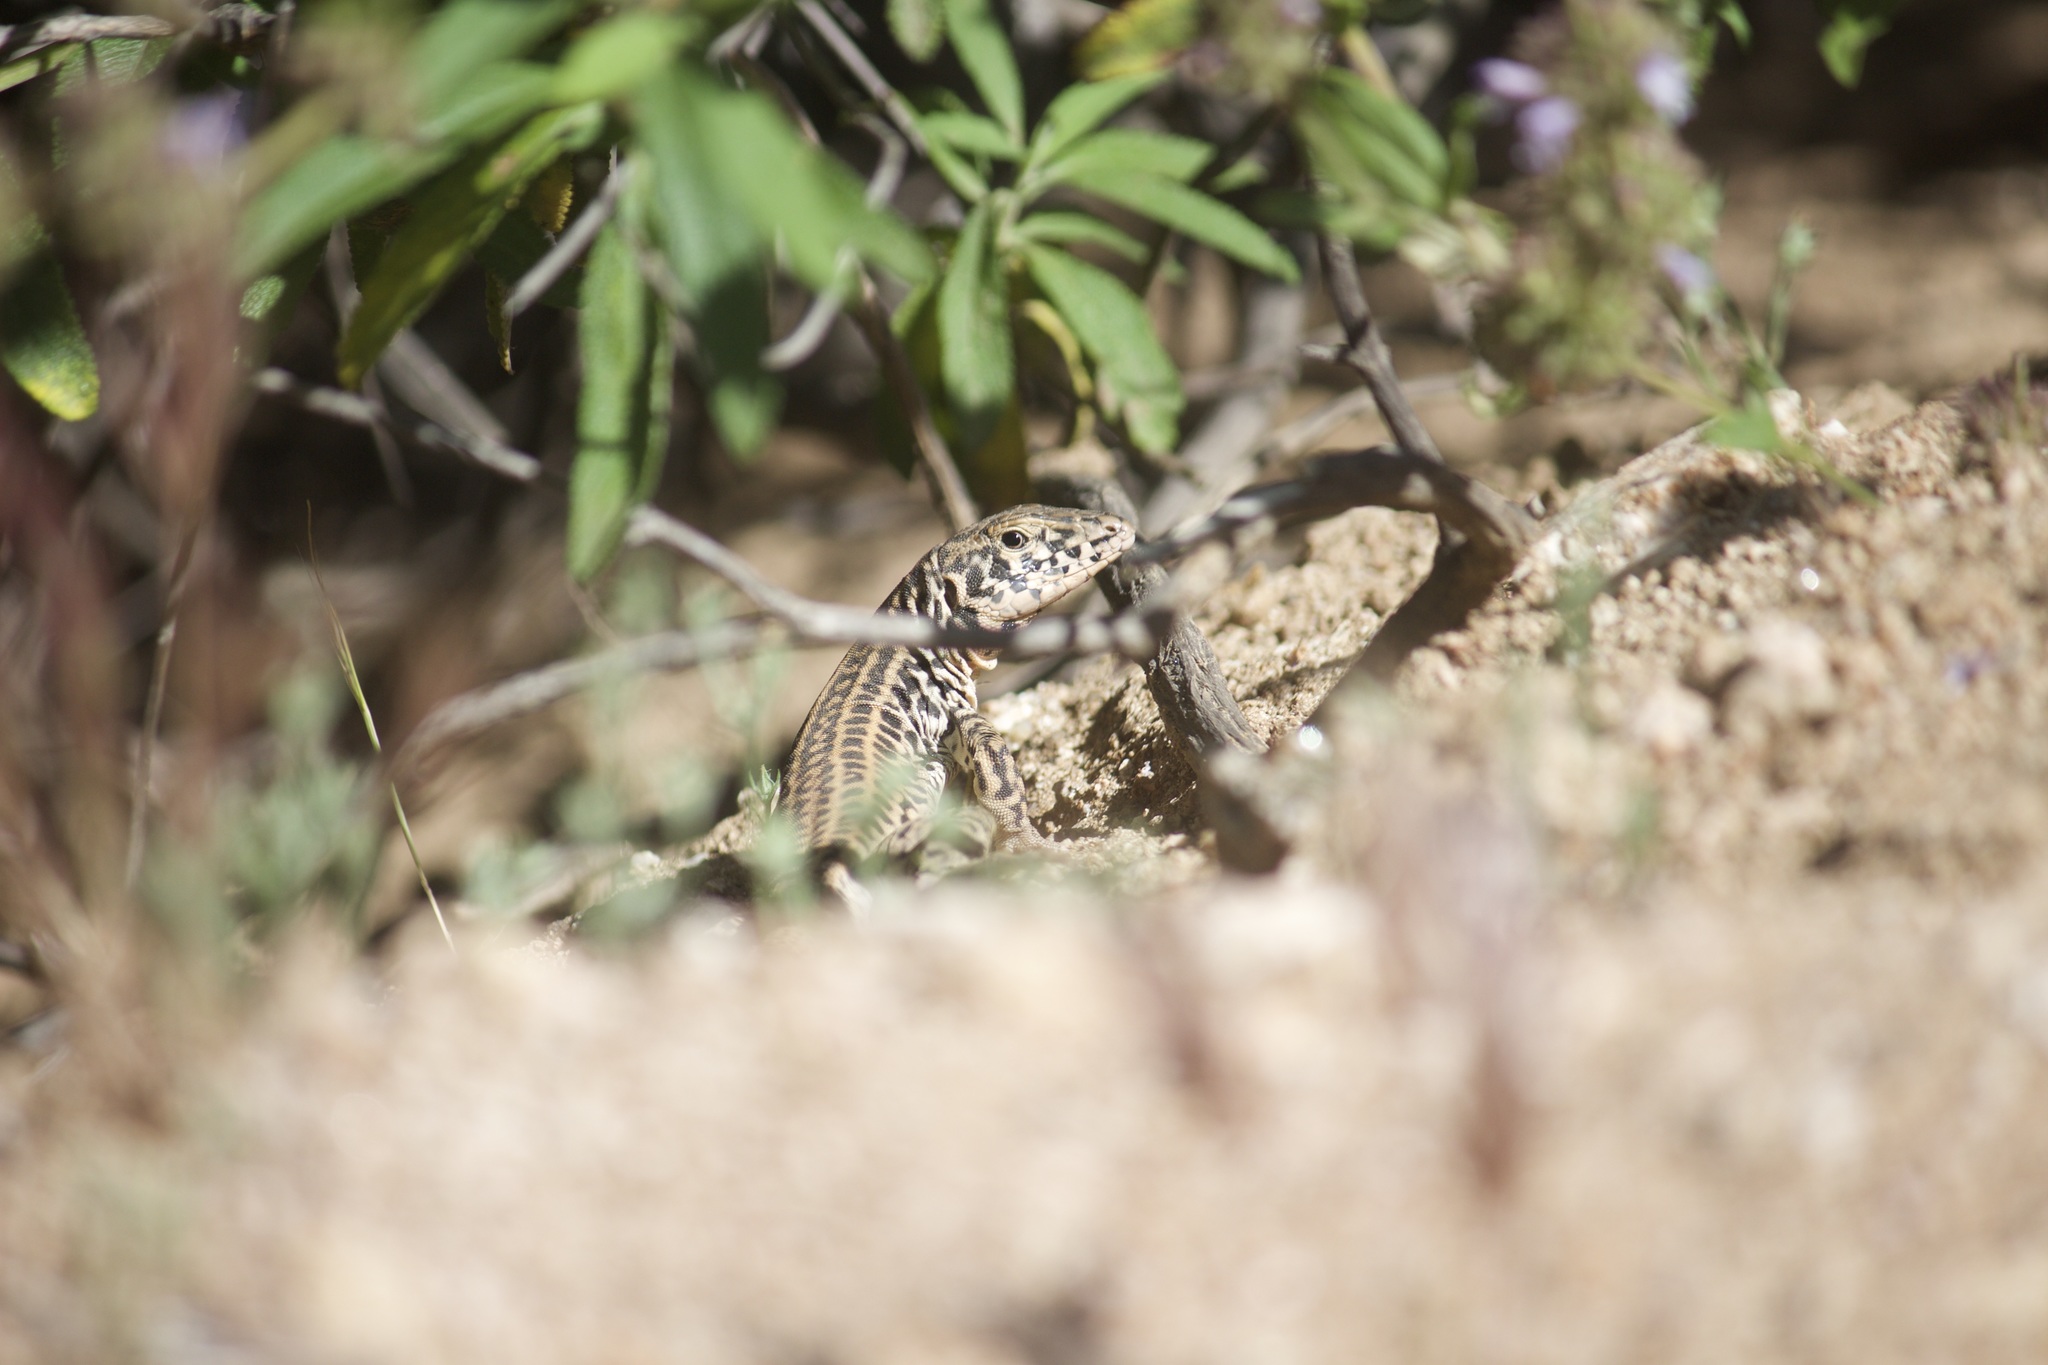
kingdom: Animalia
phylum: Chordata
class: Squamata
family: Teiidae
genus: Aspidoscelis
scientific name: Aspidoscelis tigris
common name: Tiger whiptail
